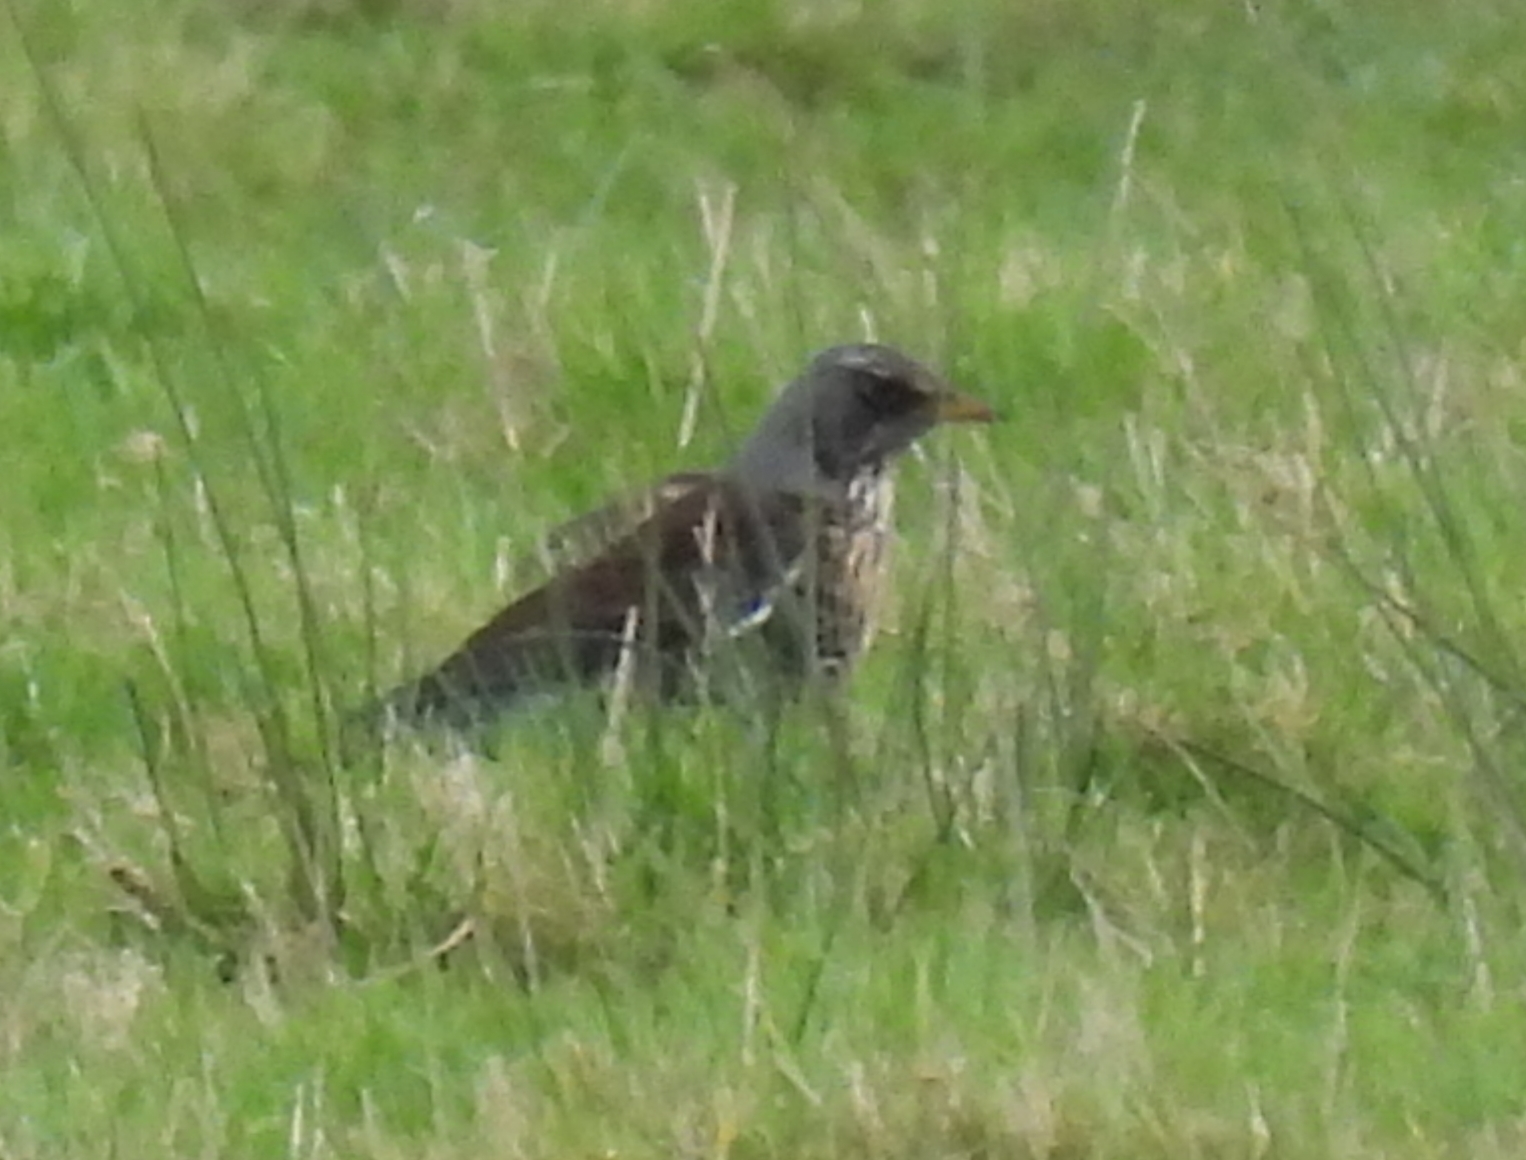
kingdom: Animalia
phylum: Chordata
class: Aves
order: Passeriformes
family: Turdidae
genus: Turdus
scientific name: Turdus pilaris
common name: Fieldfare
